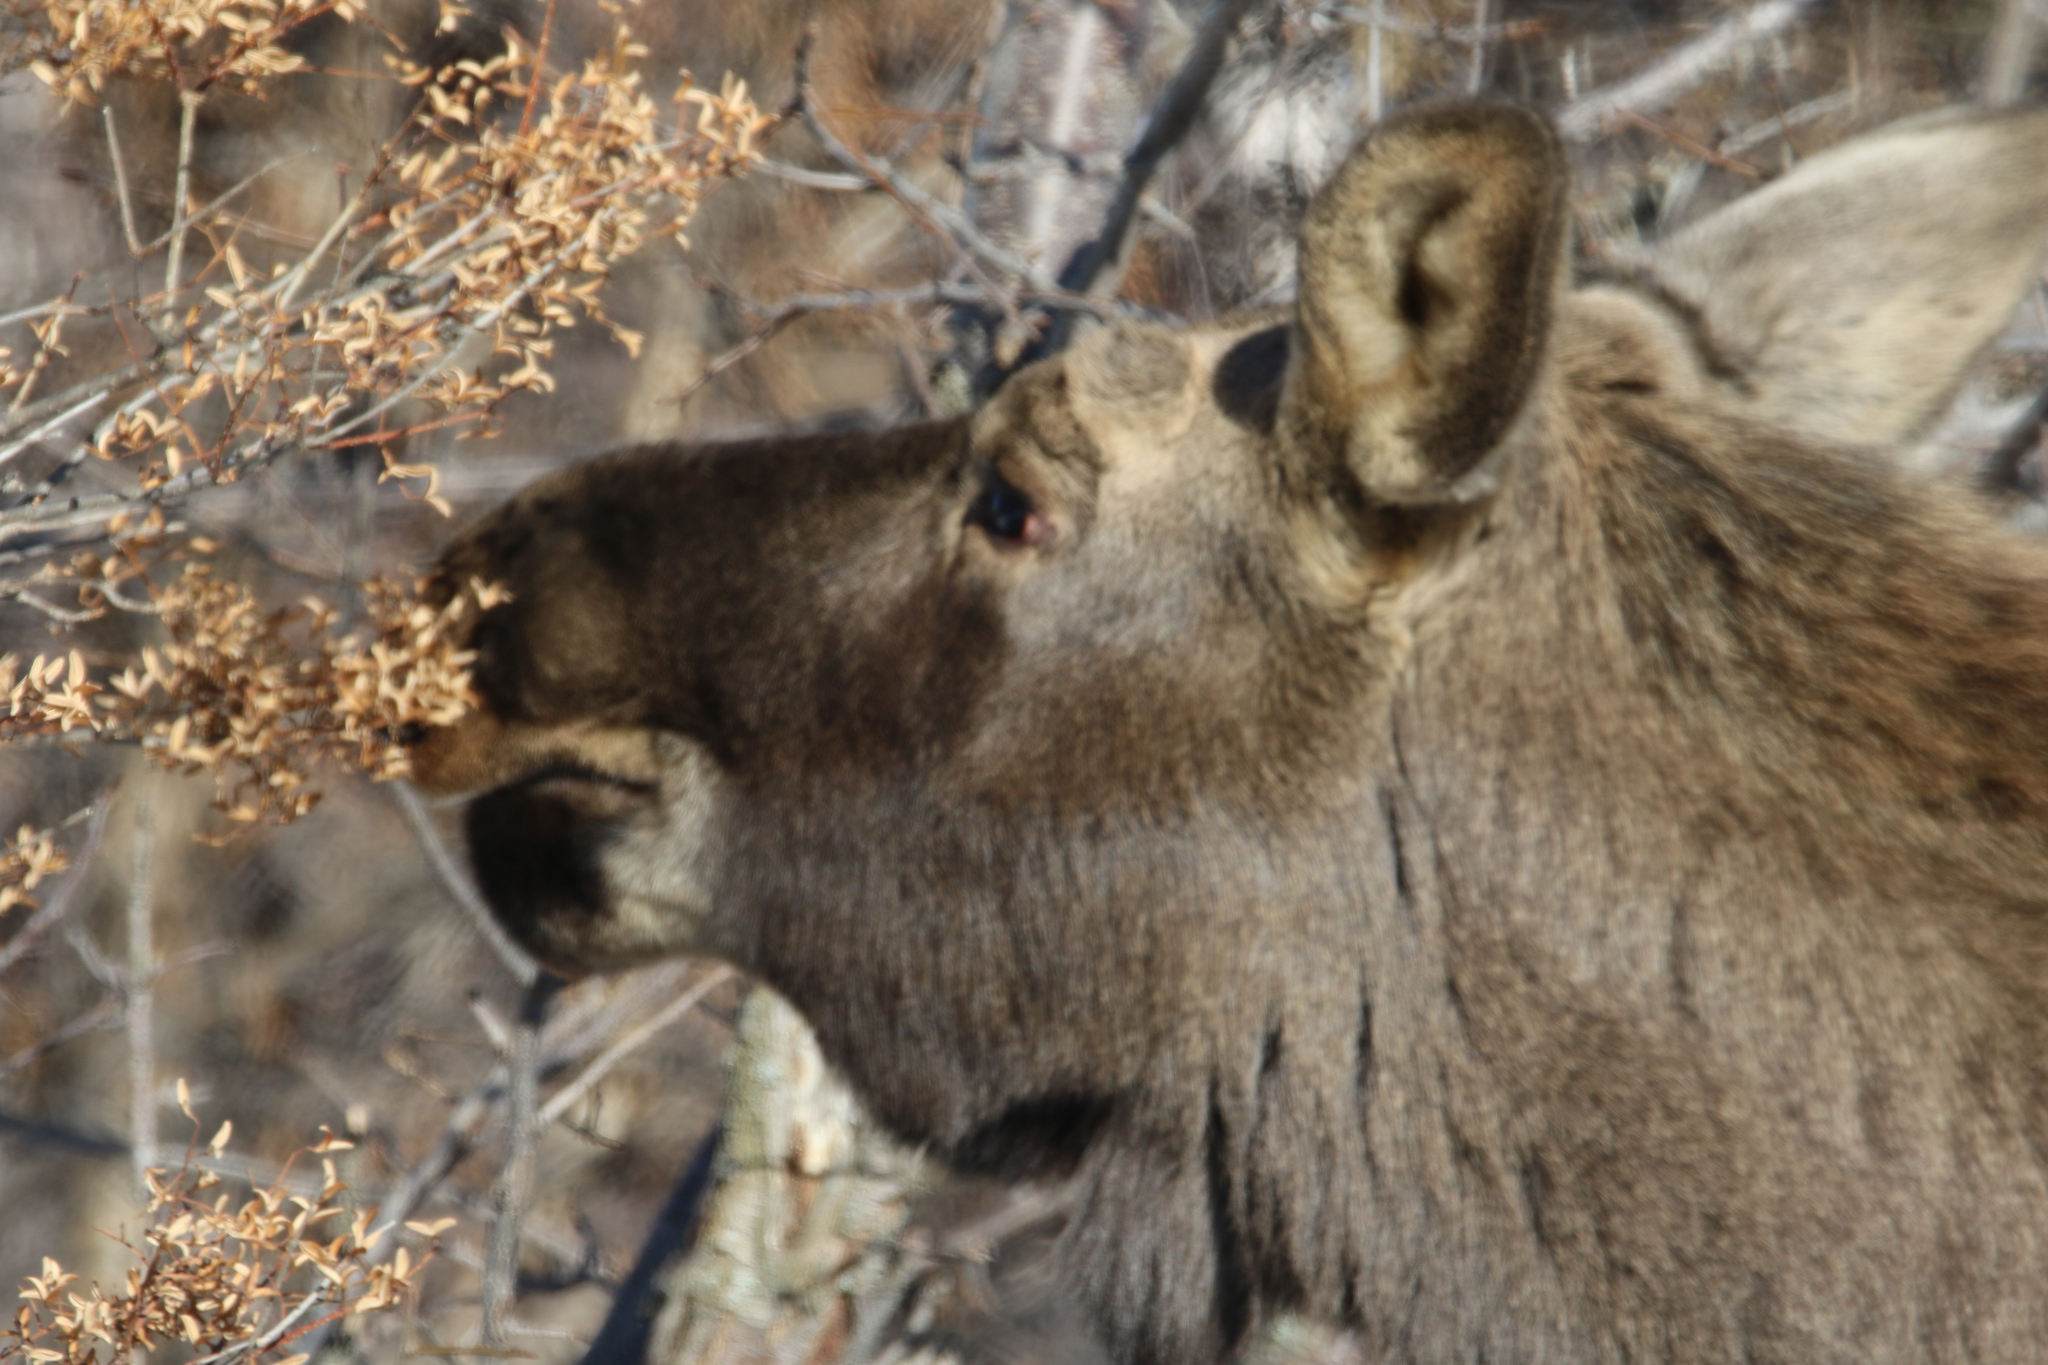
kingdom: Animalia
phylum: Chordata
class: Mammalia
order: Artiodactyla
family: Cervidae
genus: Alces
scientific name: Alces alces
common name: Moose
